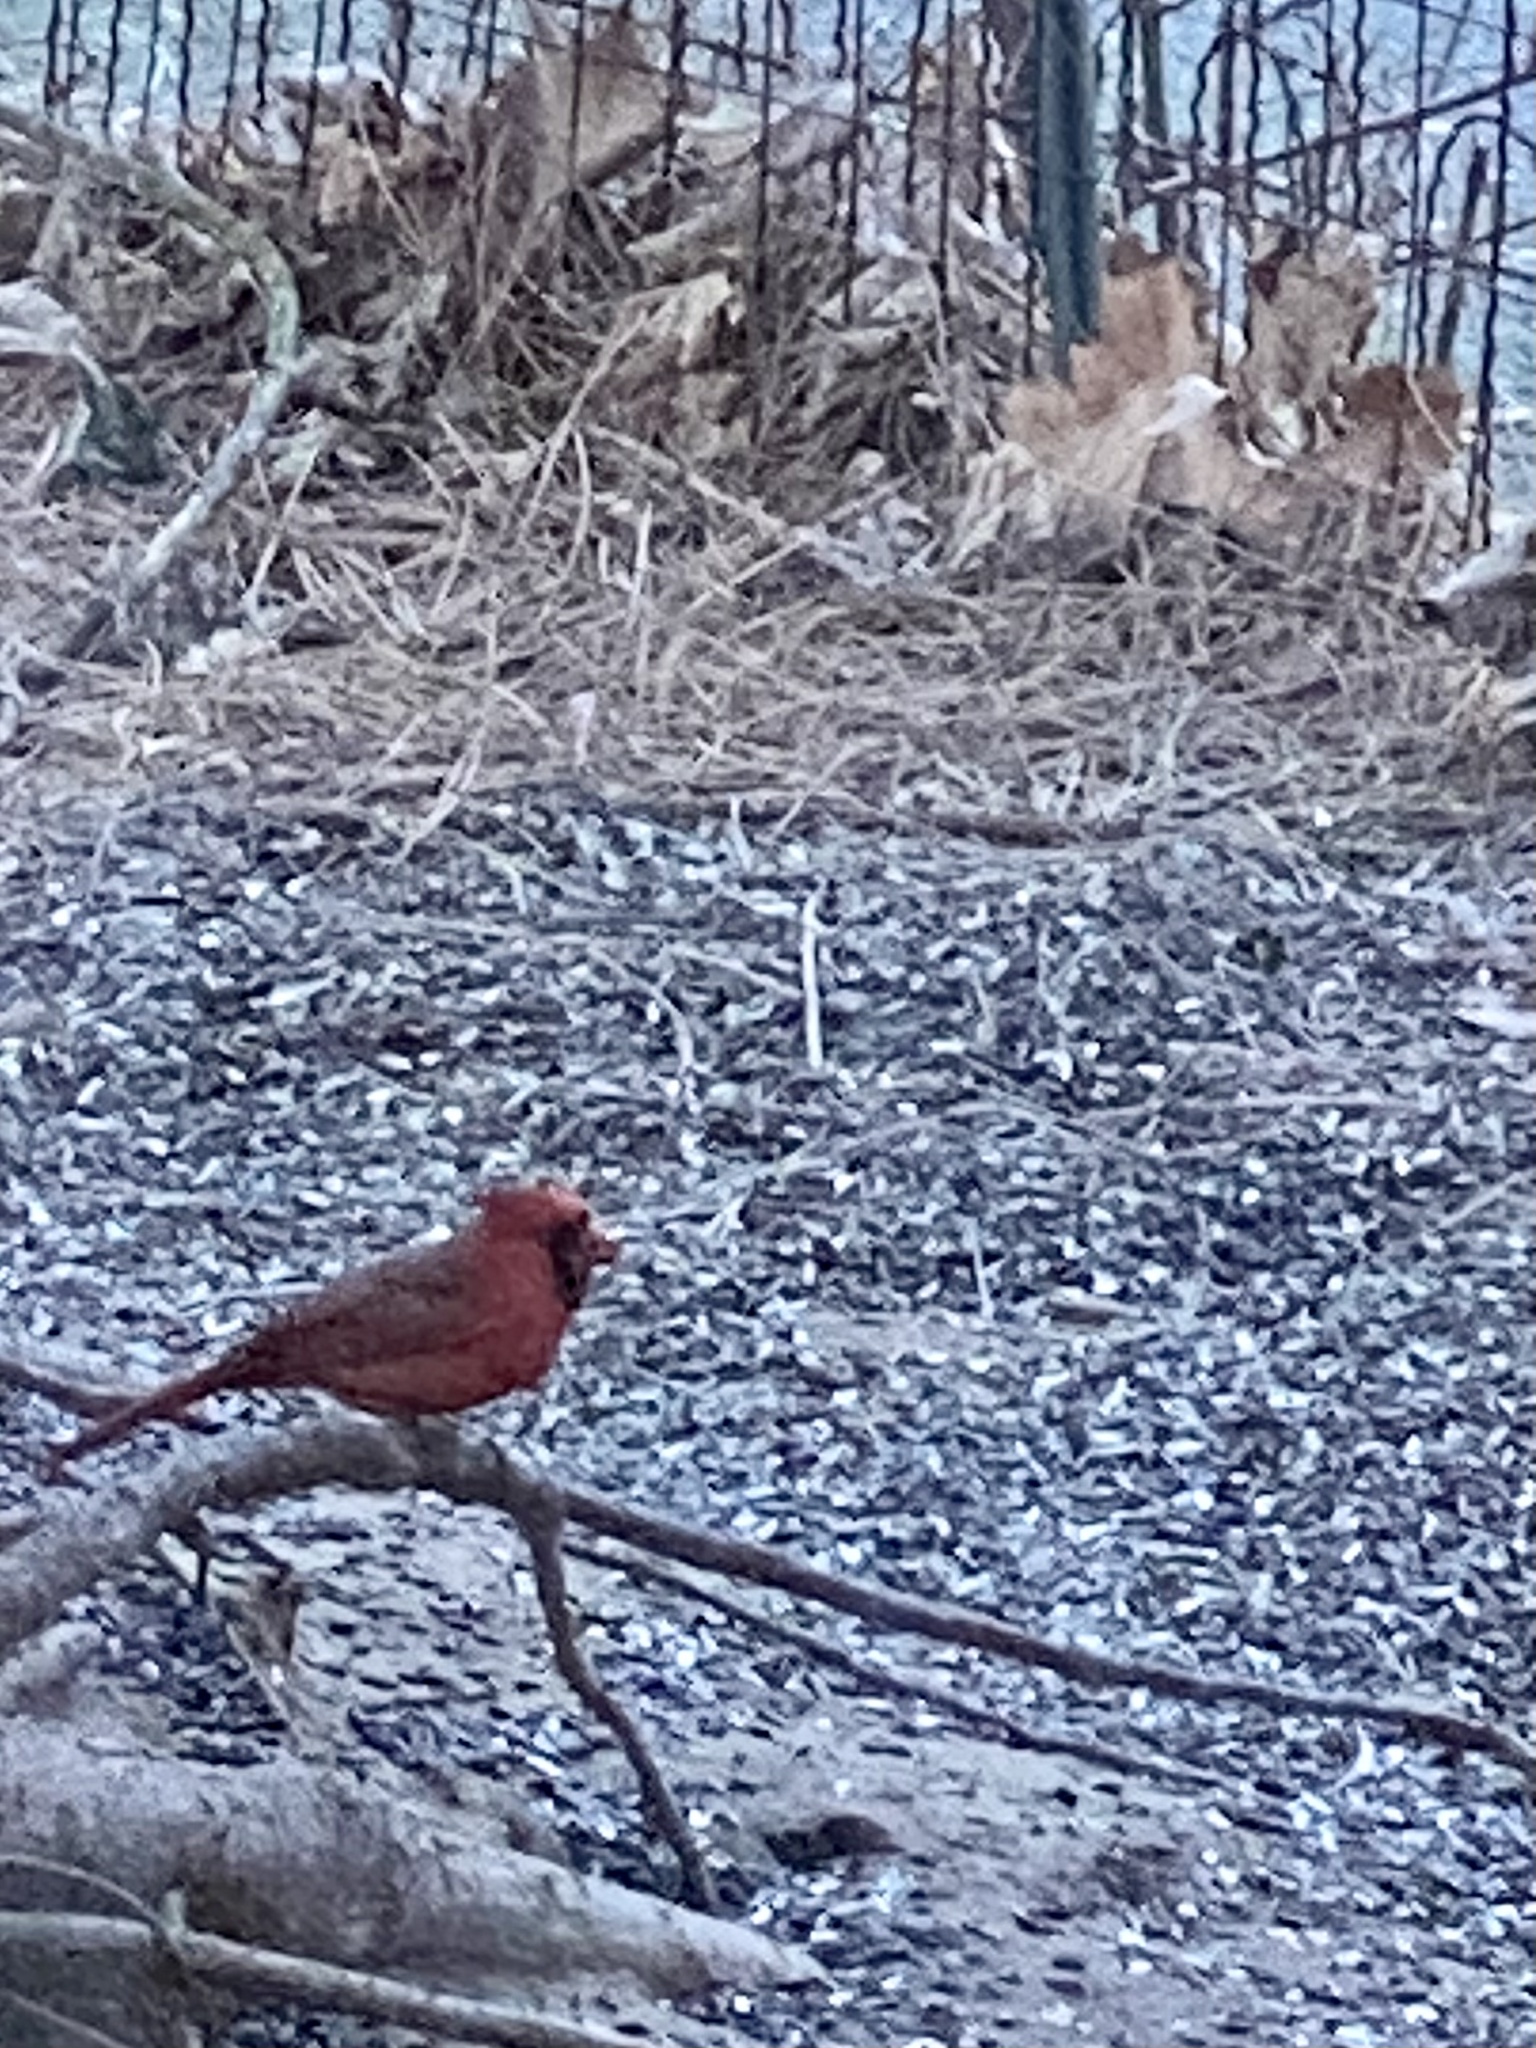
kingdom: Animalia
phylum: Chordata
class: Aves
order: Passeriformes
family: Cardinalidae
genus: Cardinalis
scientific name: Cardinalis cardinalis
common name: Northern cardinal
